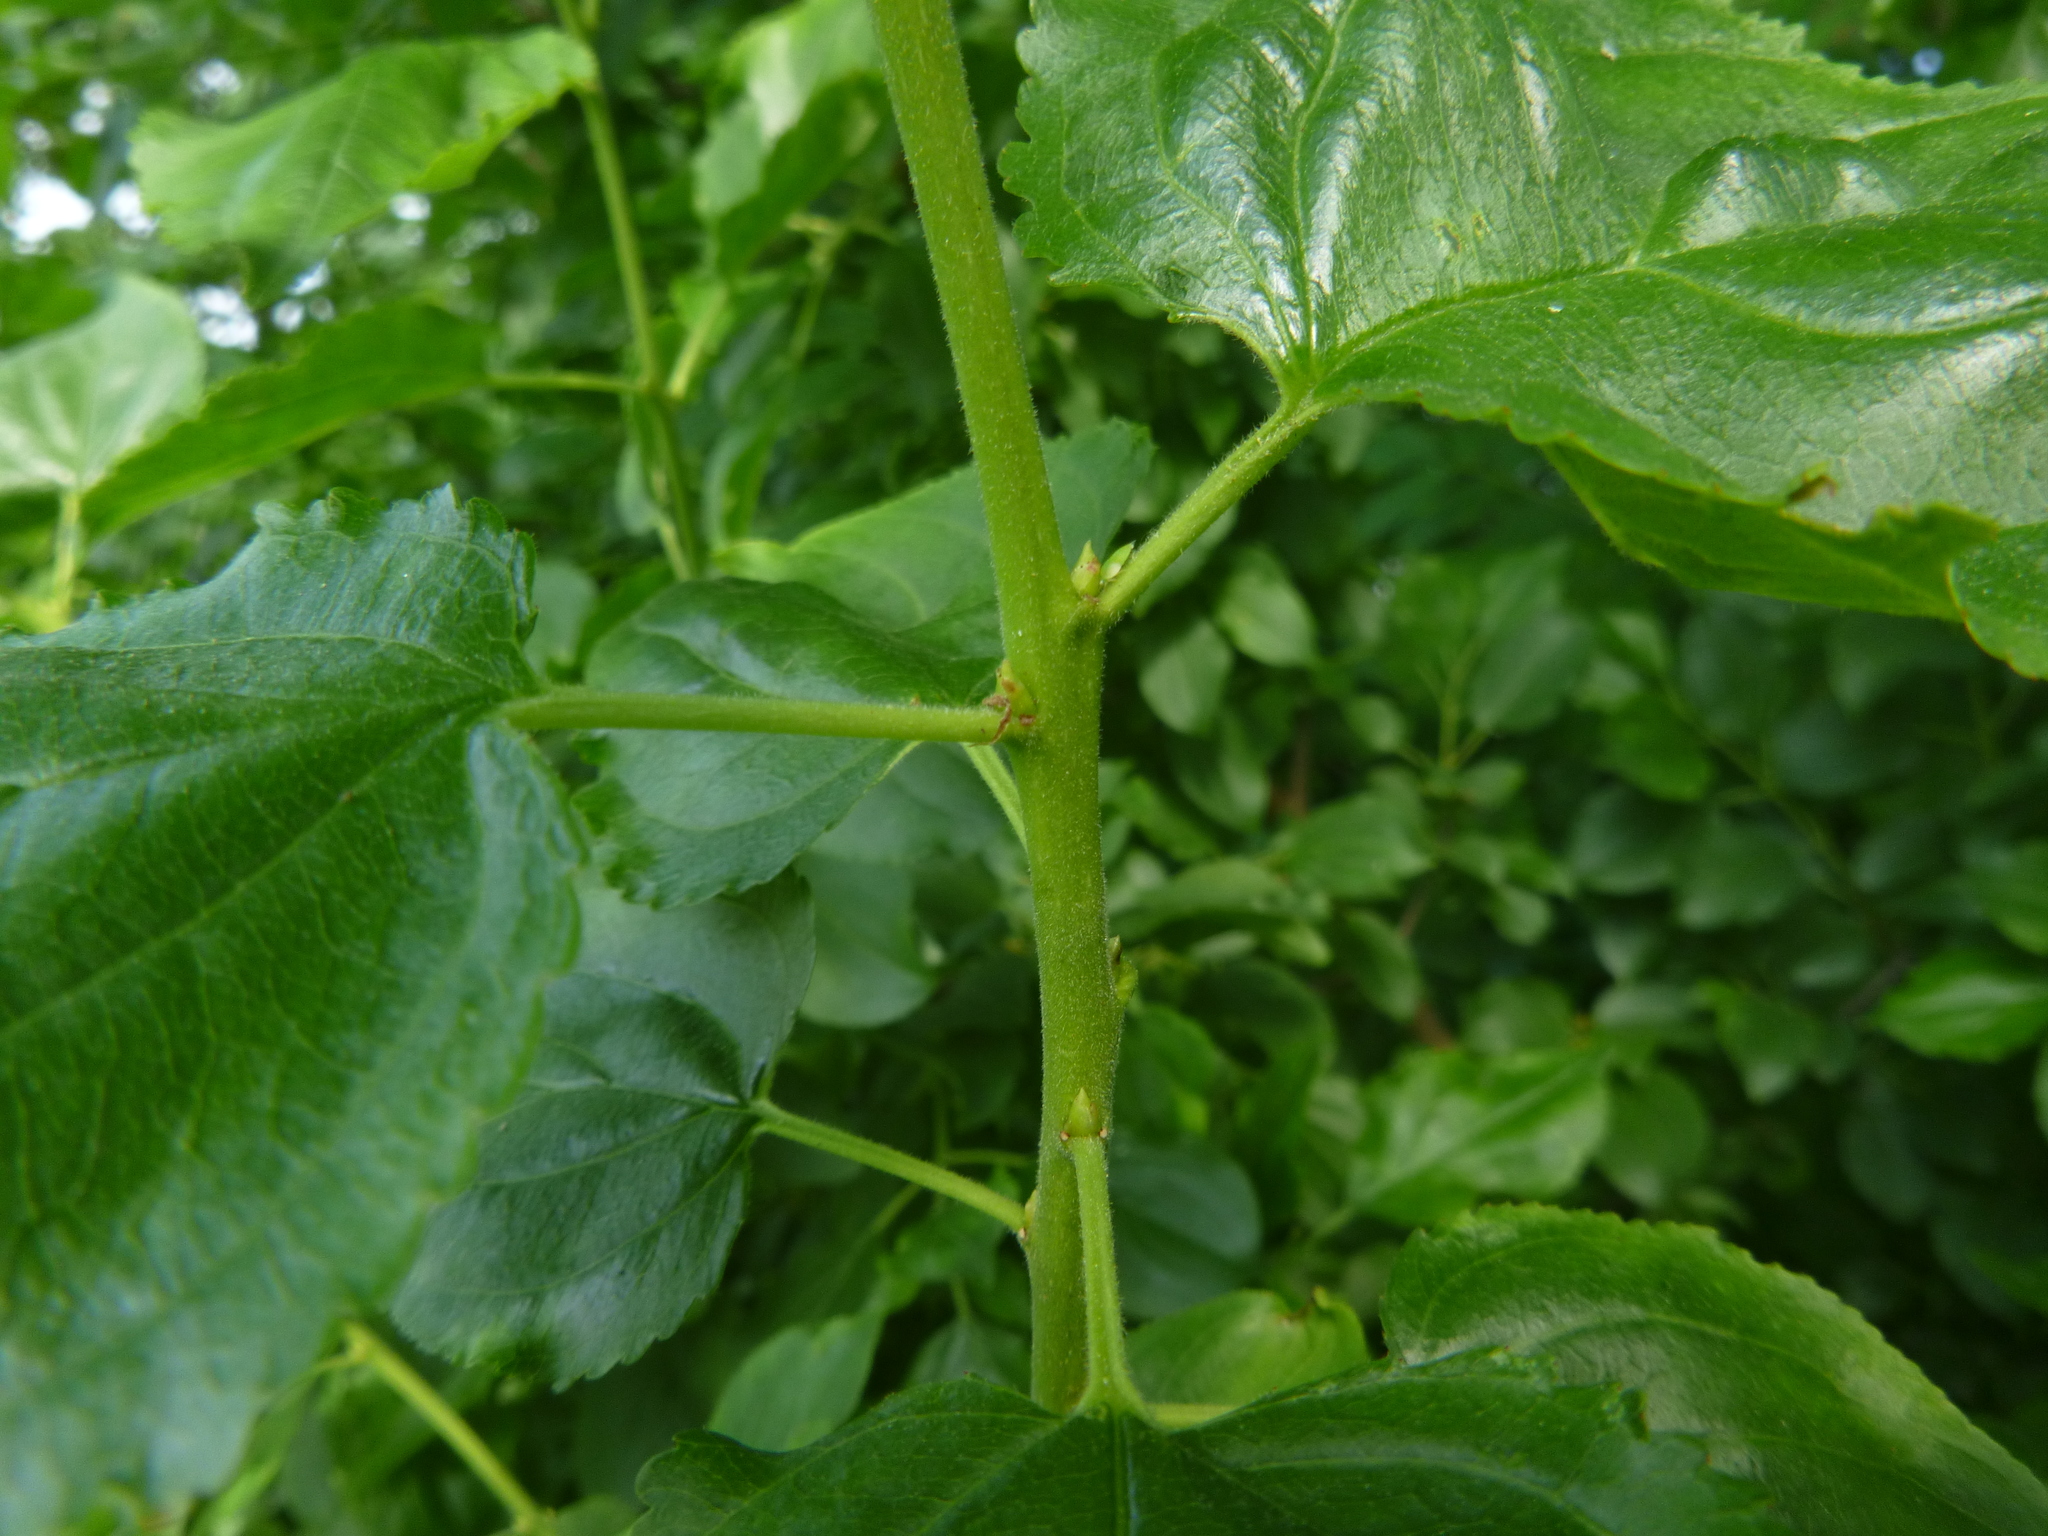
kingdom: Plantae
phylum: Tracheophyta
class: Magnoliopsida
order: Rosales
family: Rhamnaceae
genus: Rhamnus
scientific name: Rhamnus cathartica
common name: Common buckthorn
